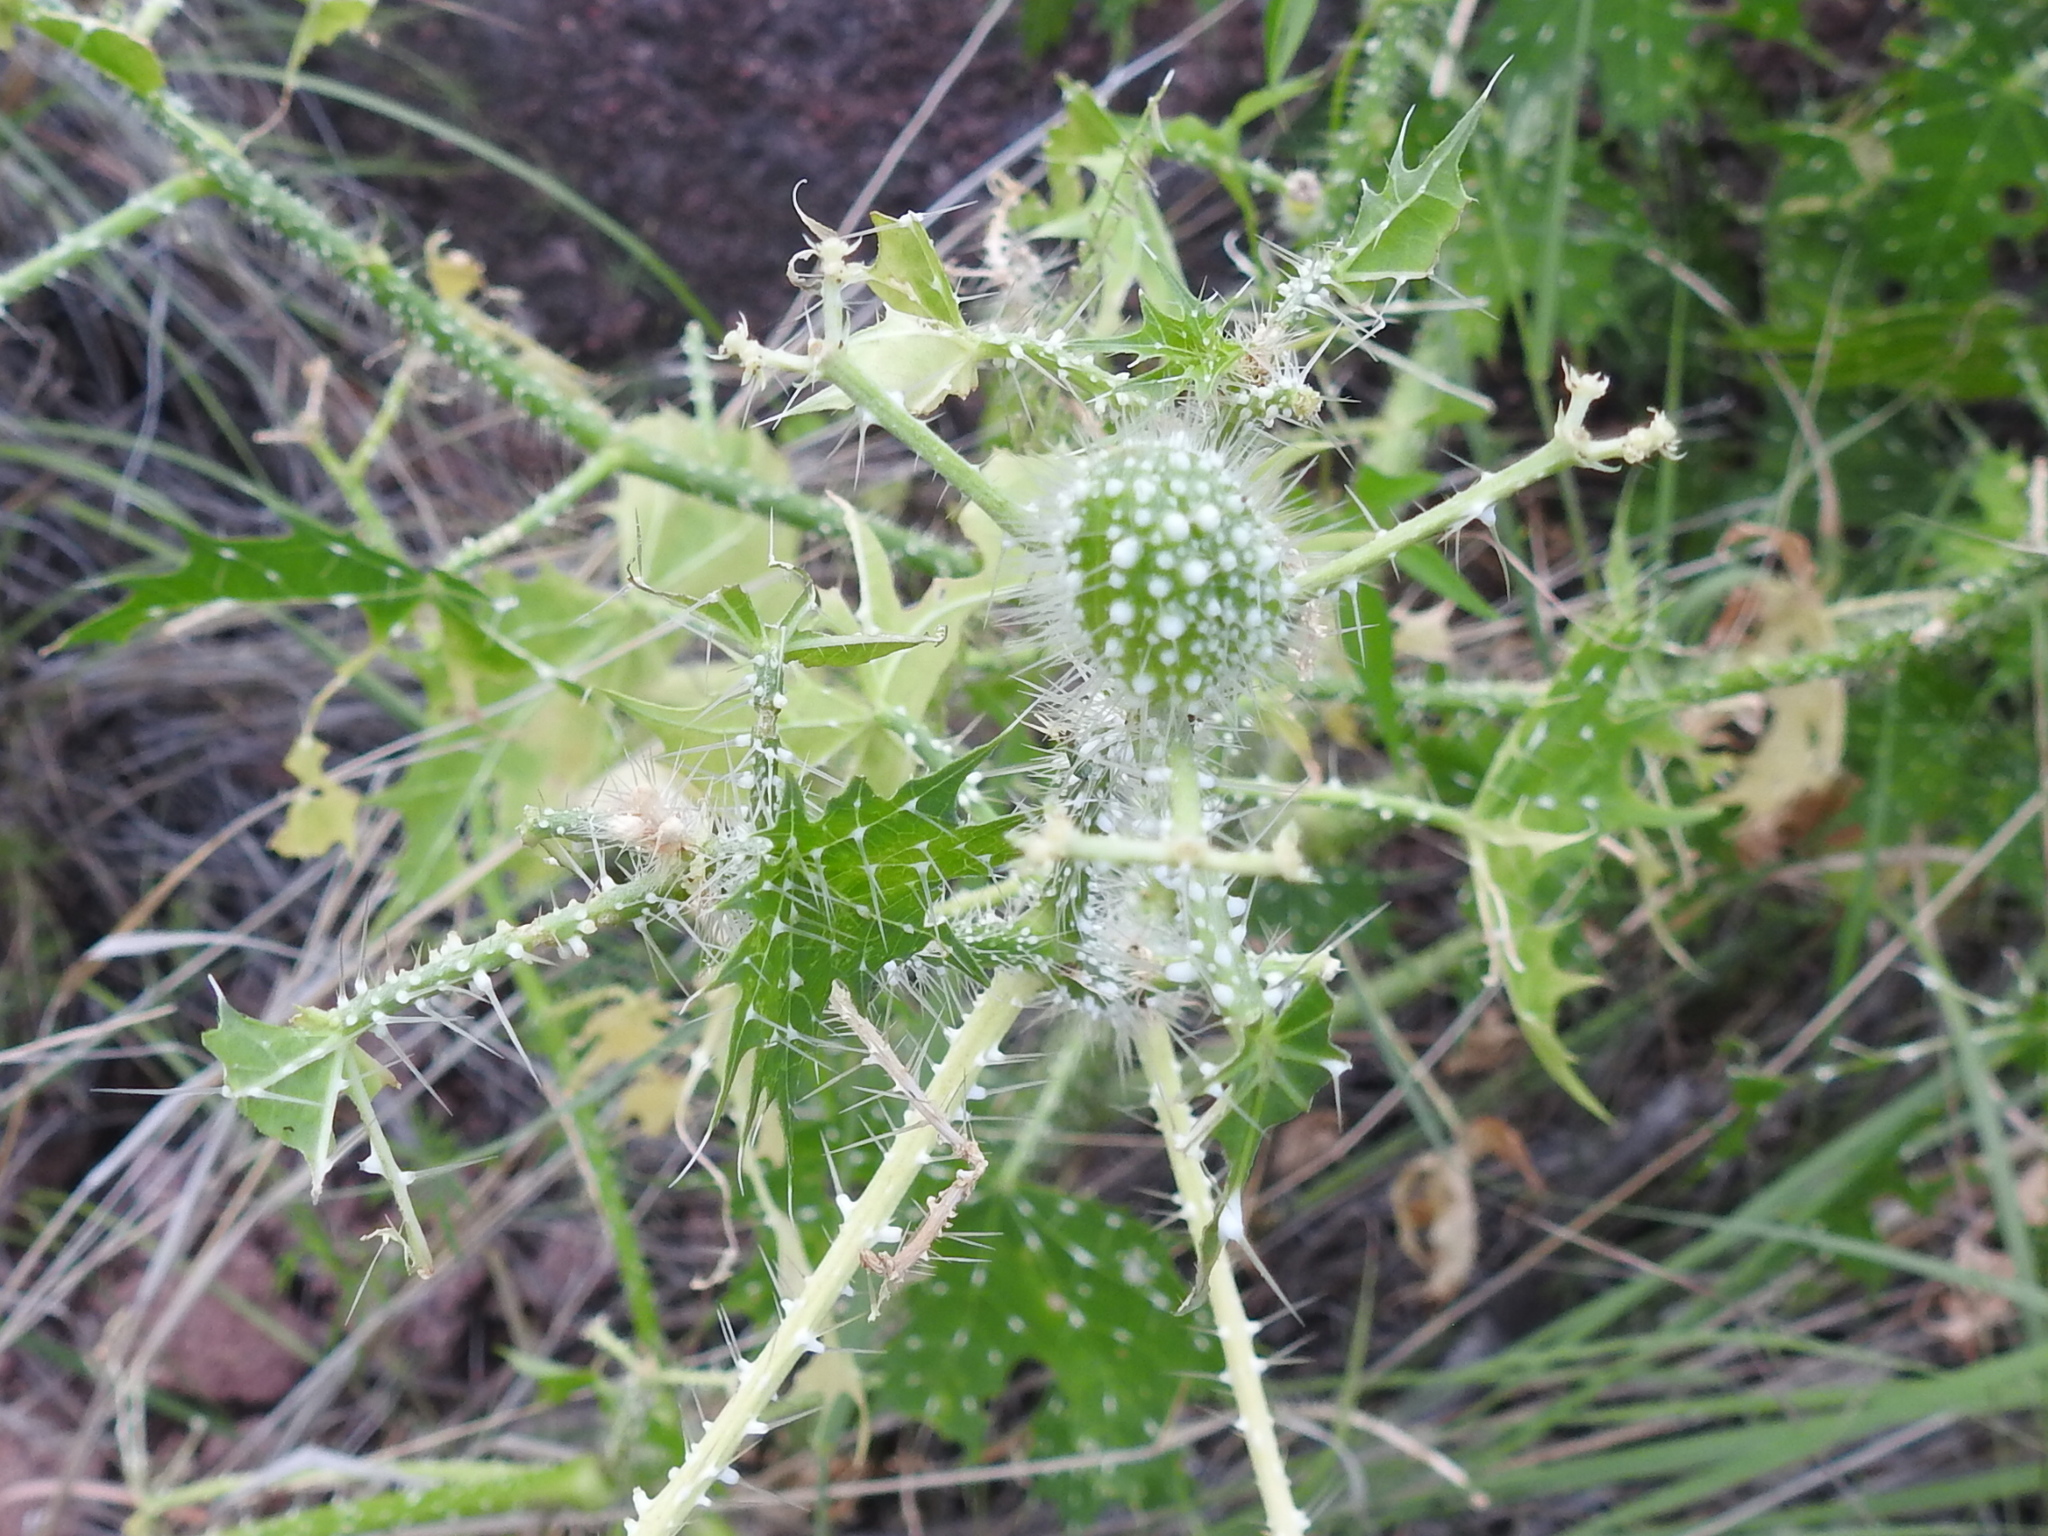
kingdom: Plantae
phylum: Tracheophyta
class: Magnoliopsida
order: Malpighiales
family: Euphorbiaceae
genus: Cnidoscolus
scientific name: Cnidoscolus angustidens
